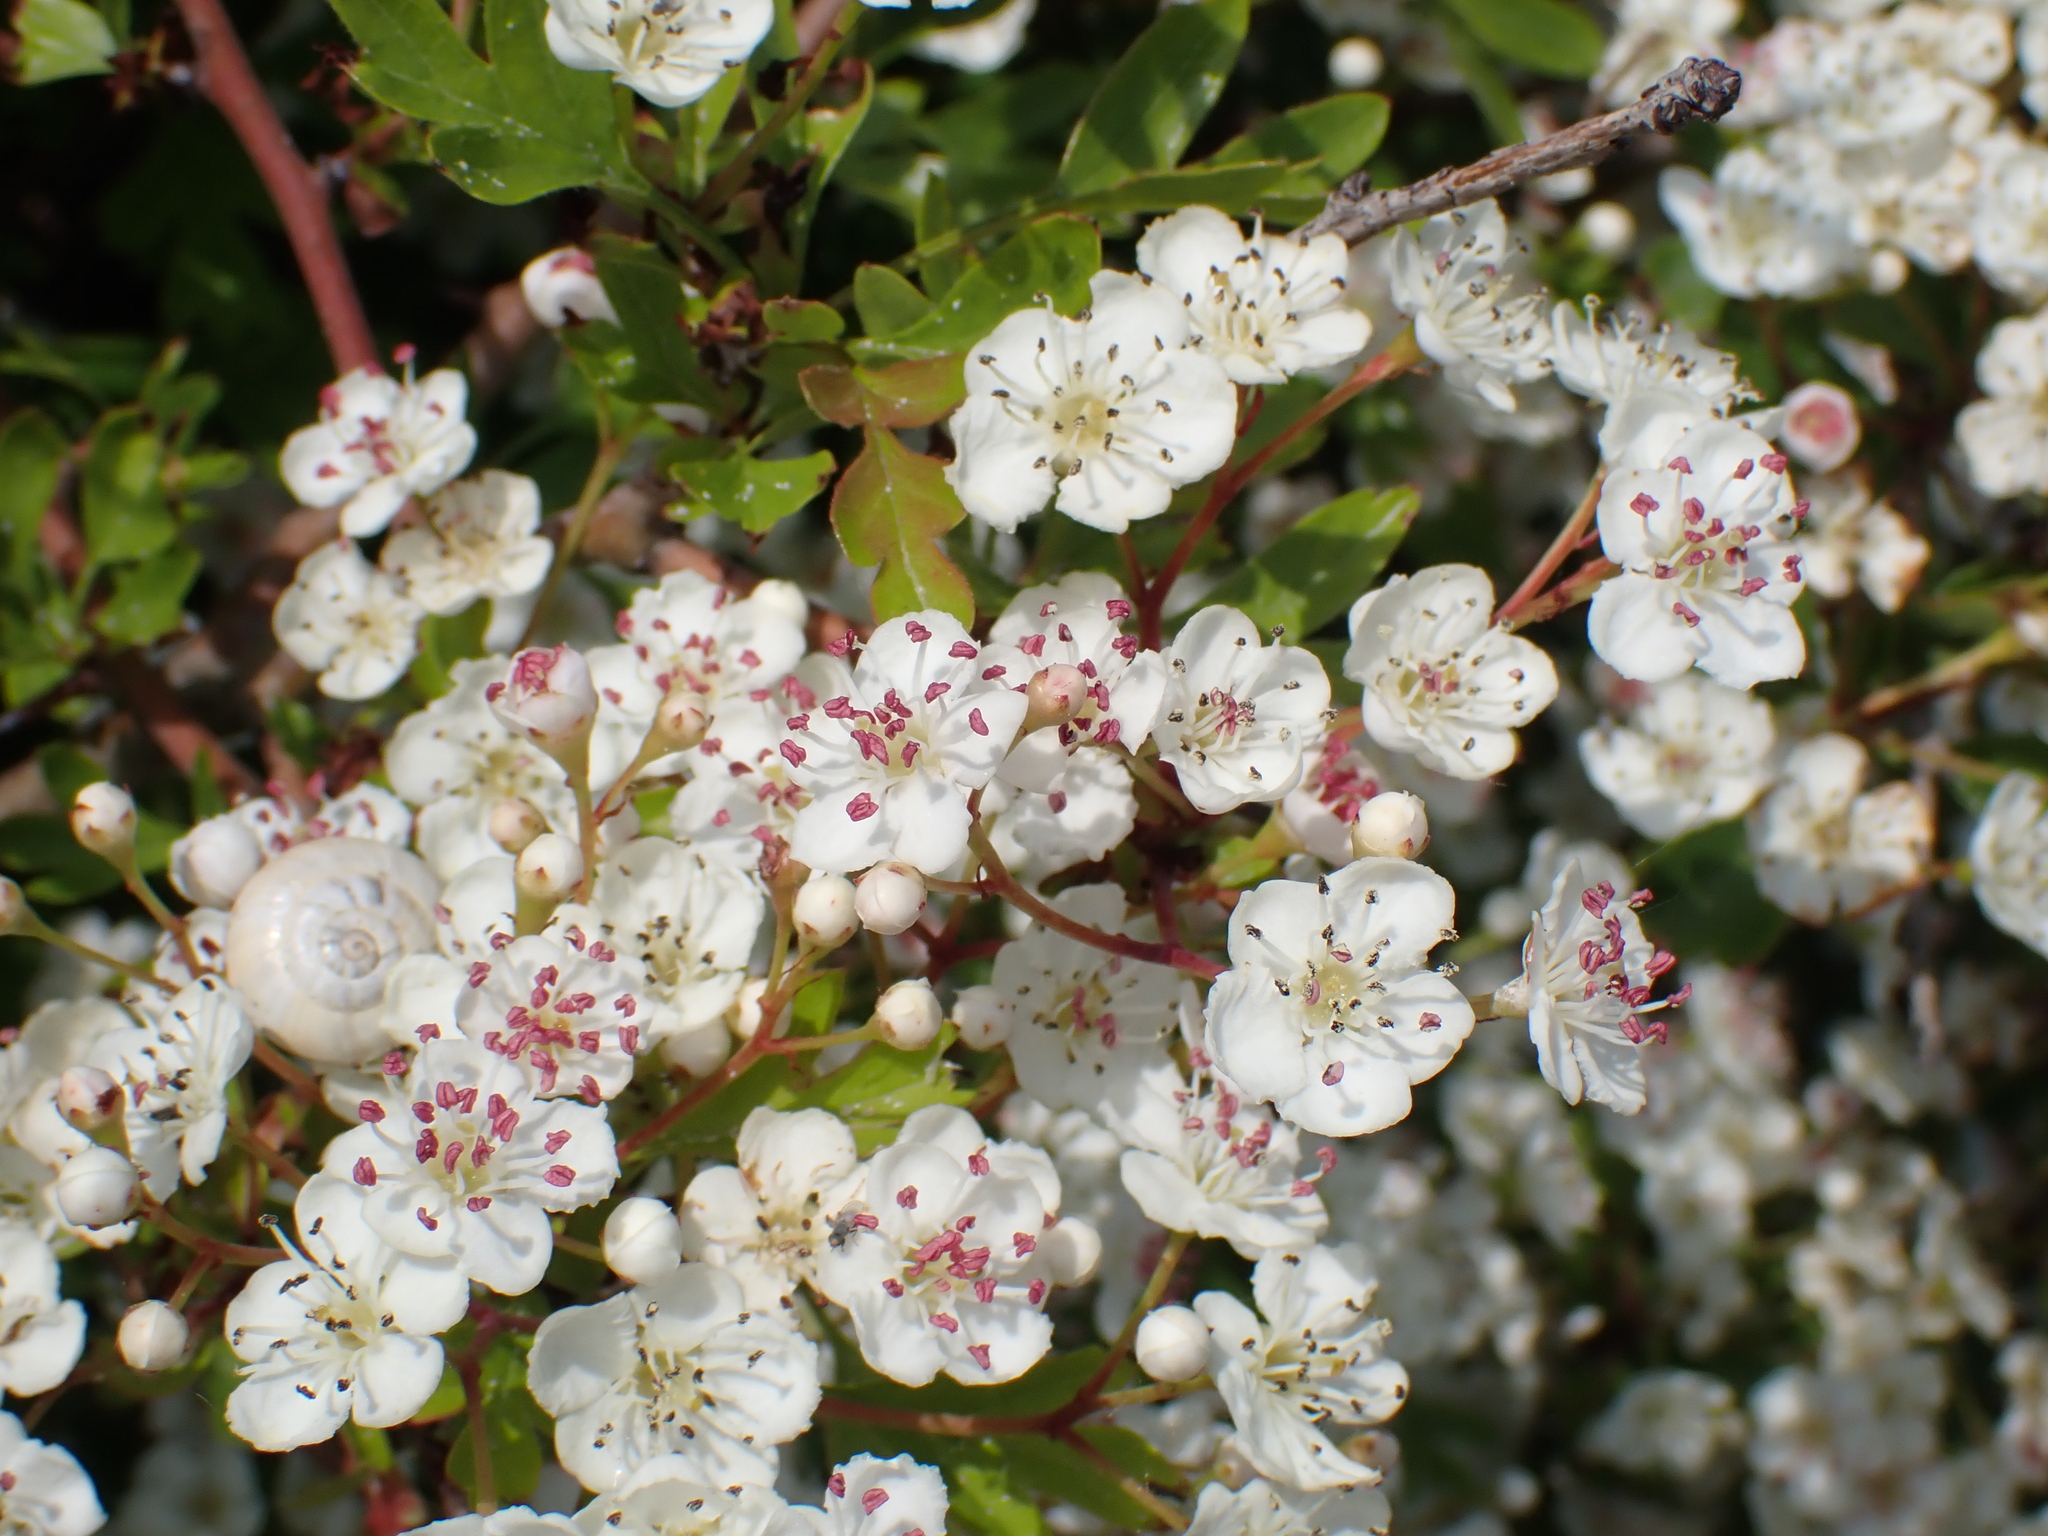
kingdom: Plantae
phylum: Tracheophyta
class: Magnoliopsida
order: Rosales
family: Rosaceae
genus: Crataegus
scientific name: Crataegus monogyna
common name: Hawthorn
